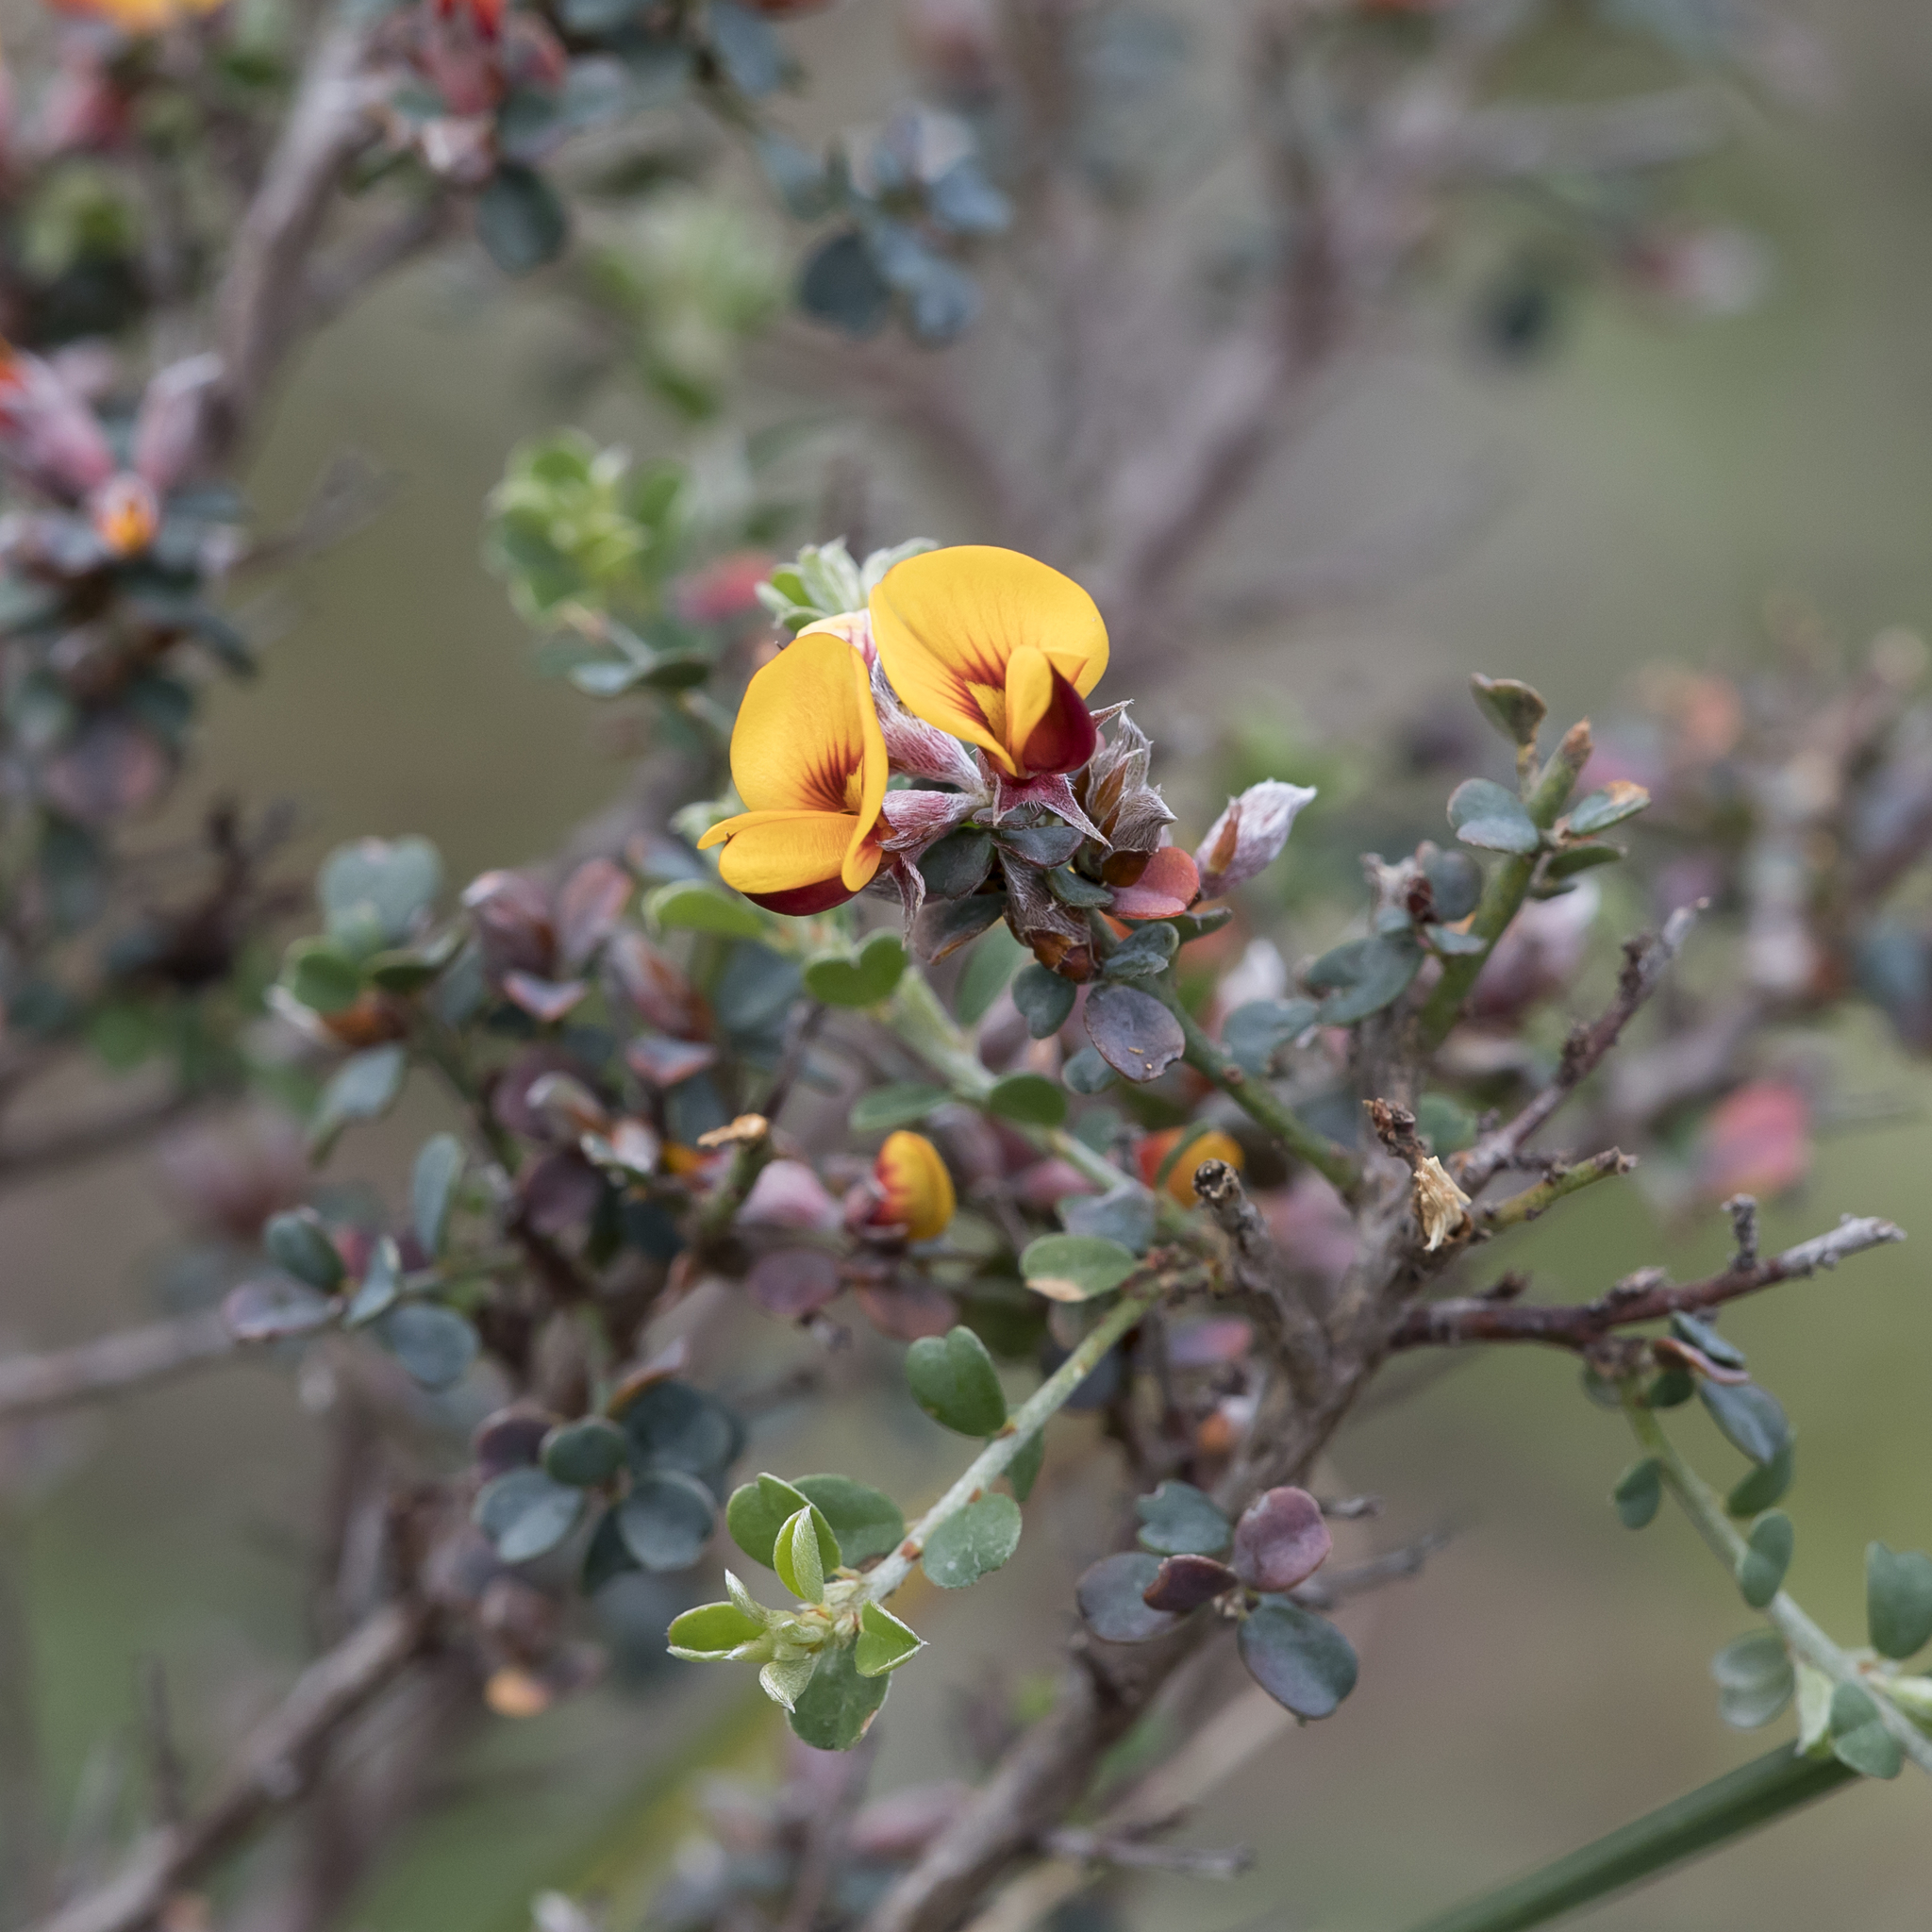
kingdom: Plantae
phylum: Tracheophyta
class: Magnoliopsida
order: Fabales
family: Fabaceae
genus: Pultenaea
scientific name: Pultenaea largiflorens
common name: Twiggy bush-pea
